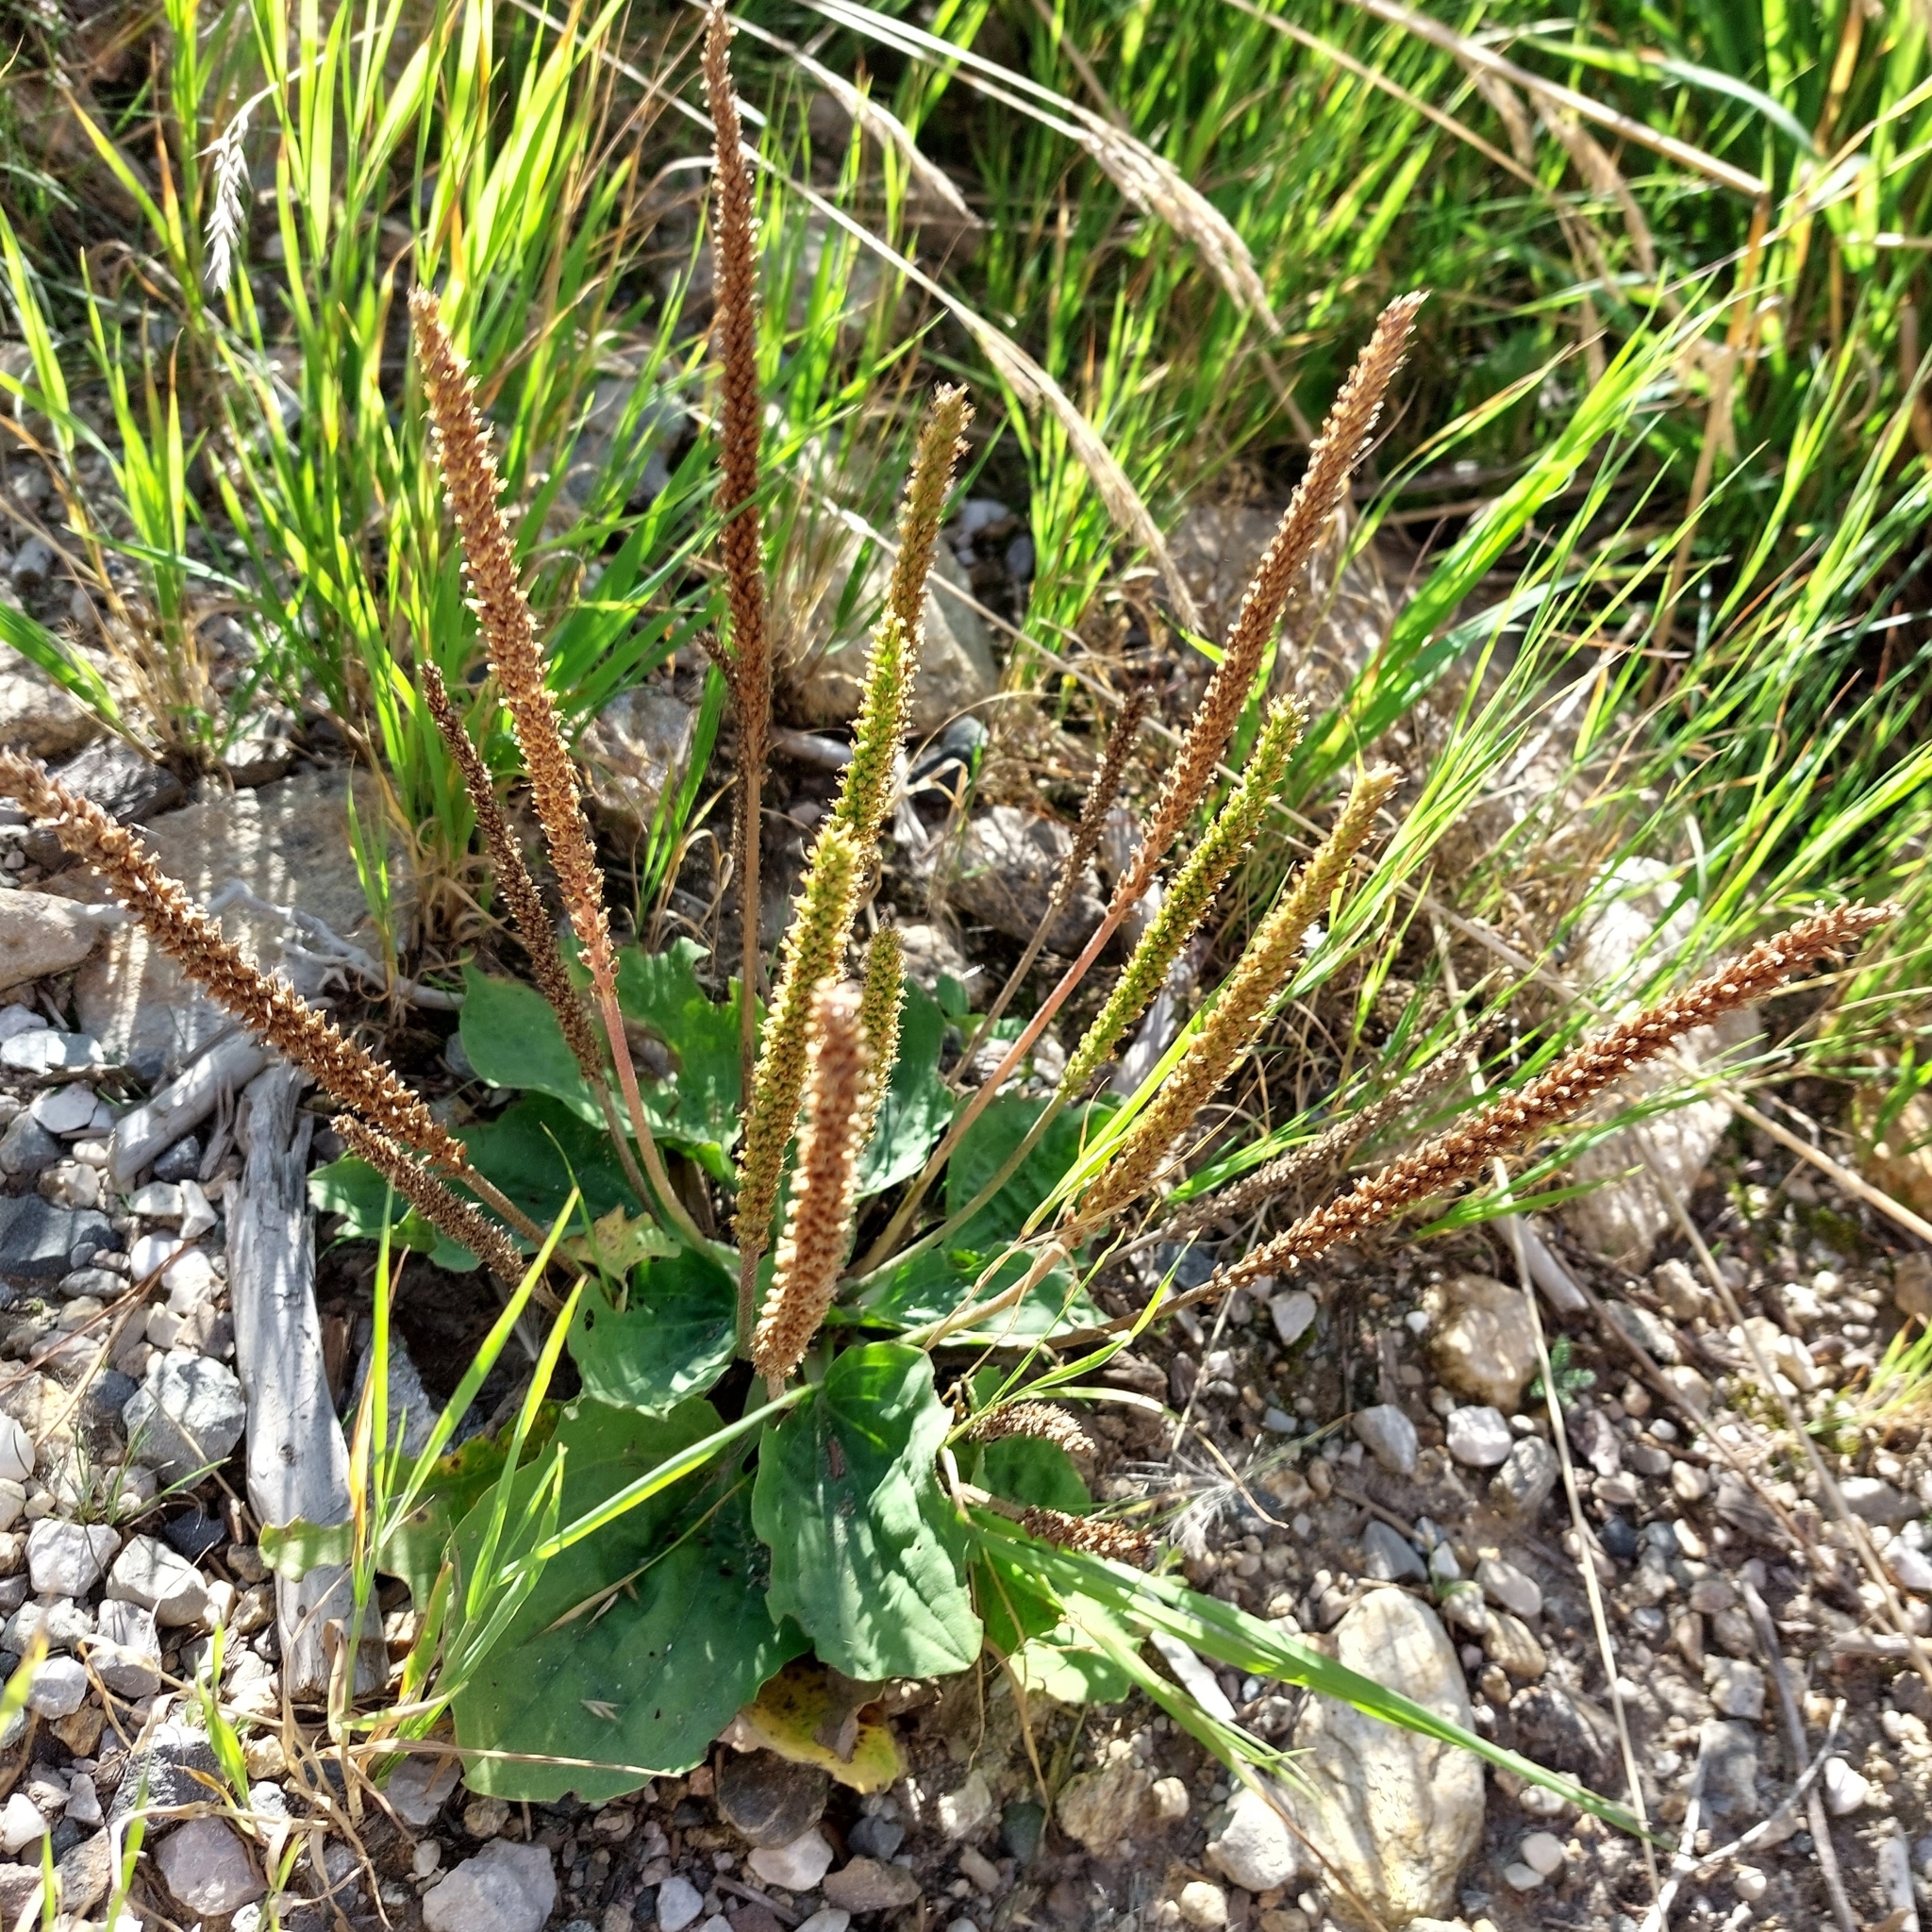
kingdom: Plantae
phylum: Tracheophyta
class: Magnoliopsida
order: Lamiales
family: Plantaginaceae
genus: Plantago
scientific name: Plantago major
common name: Common plantain
